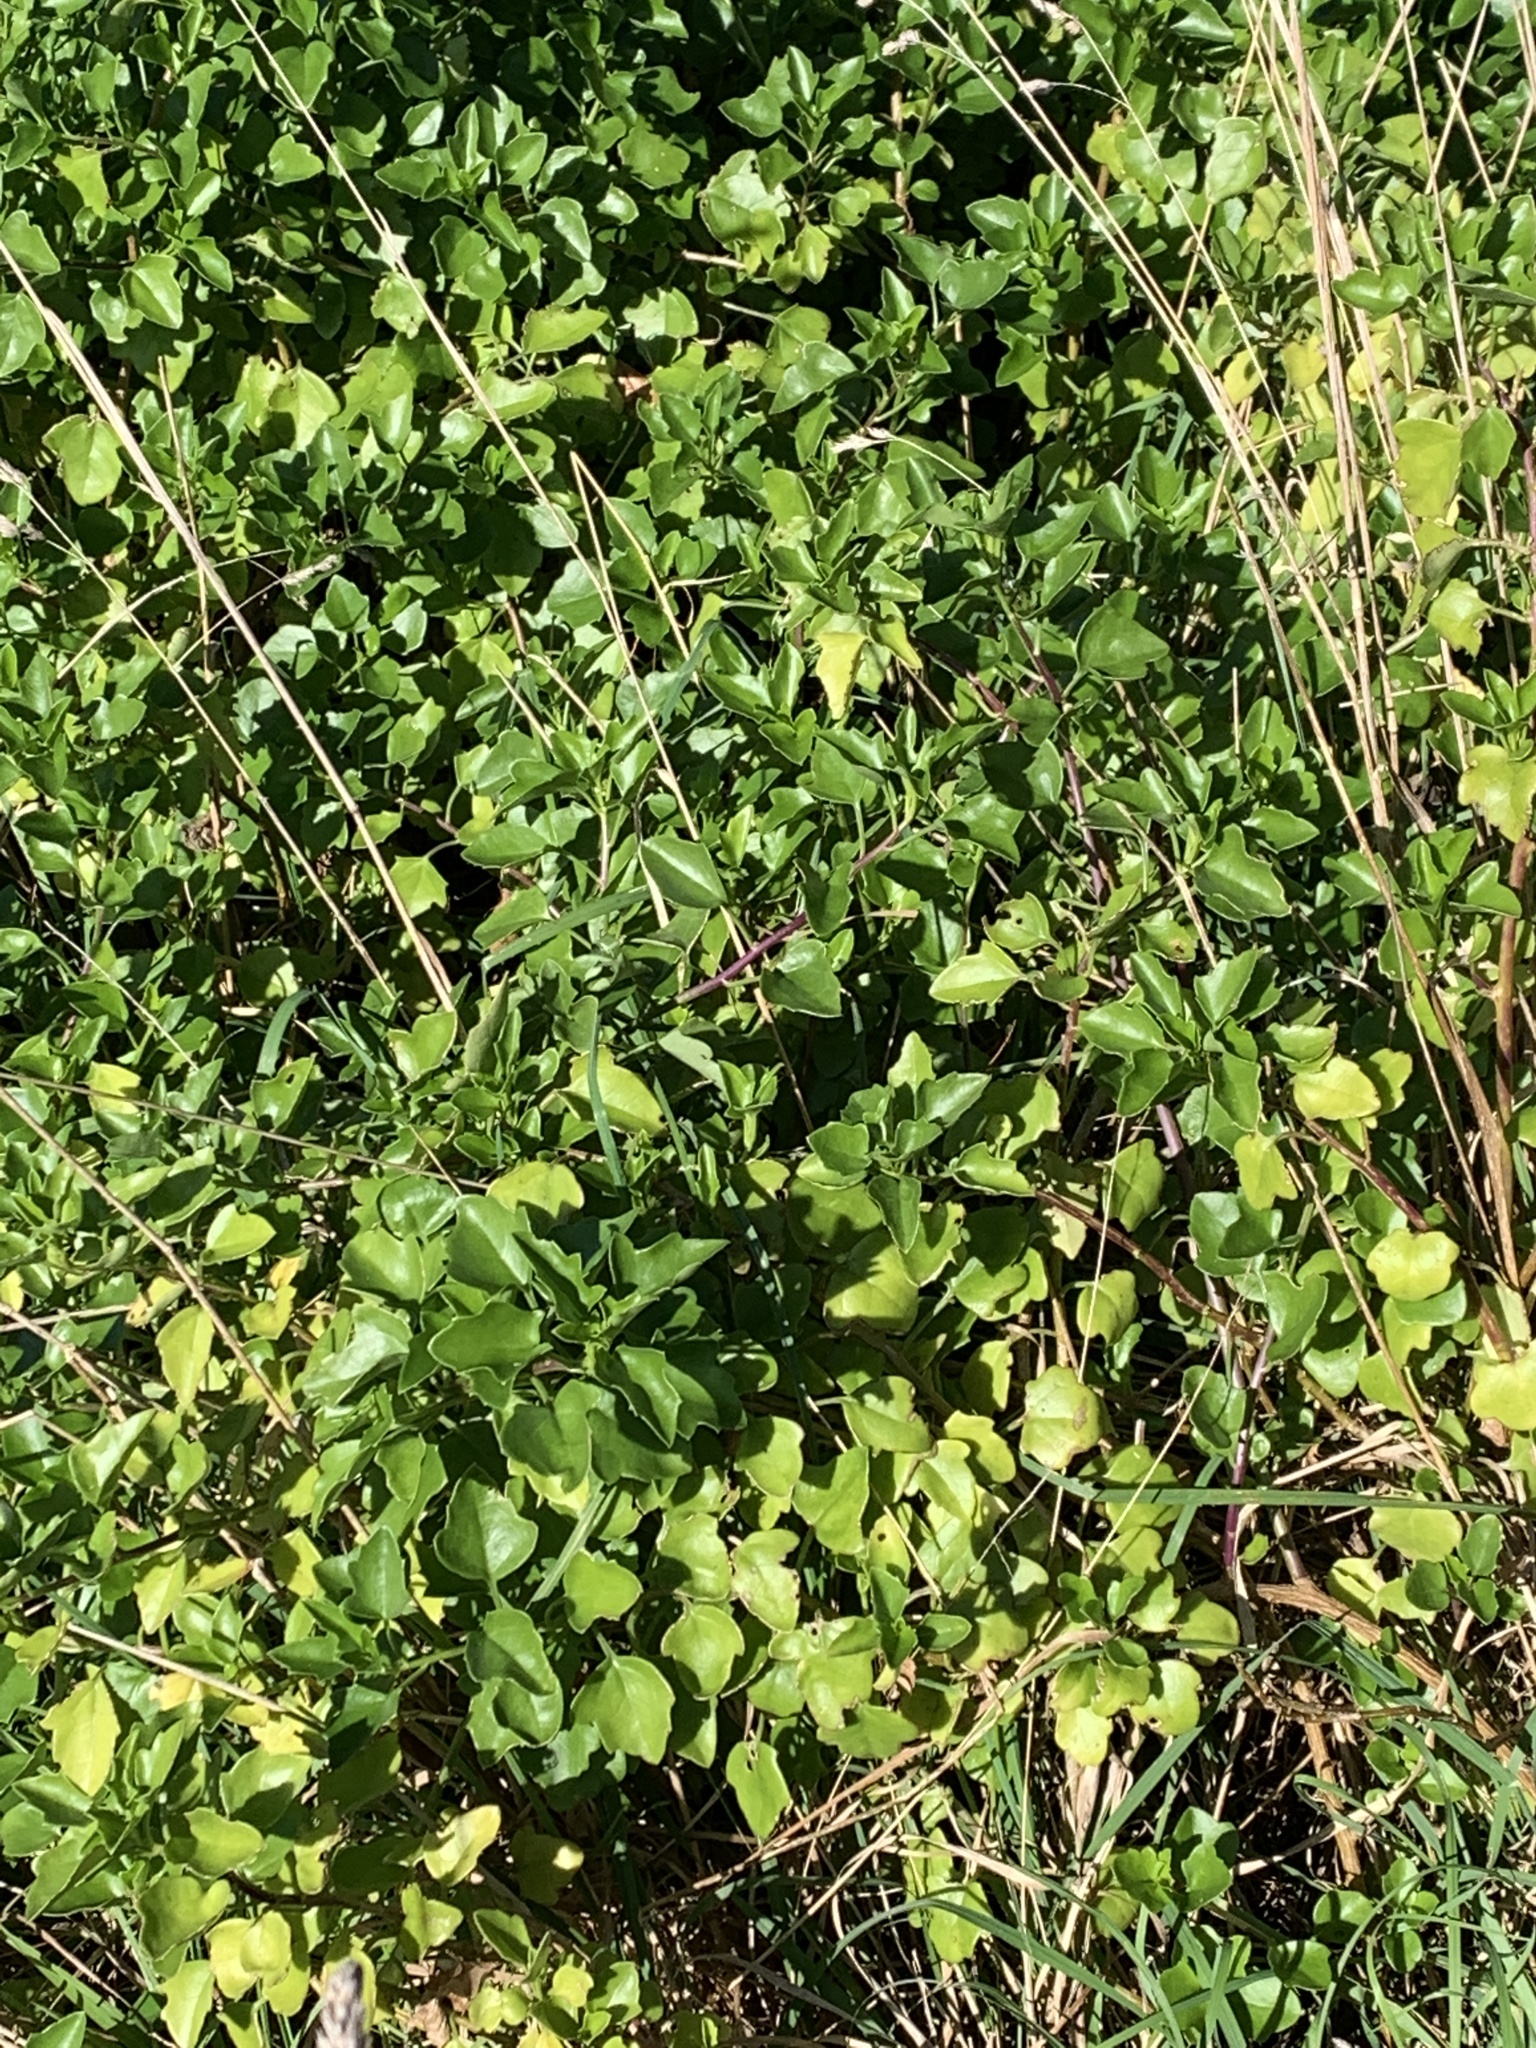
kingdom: Plantae
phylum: Tracheophyta
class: Magnoliopsida
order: Asterales
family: Asteraceae
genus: Senecio
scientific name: Senecio angulatus
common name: Climbing groundsel
